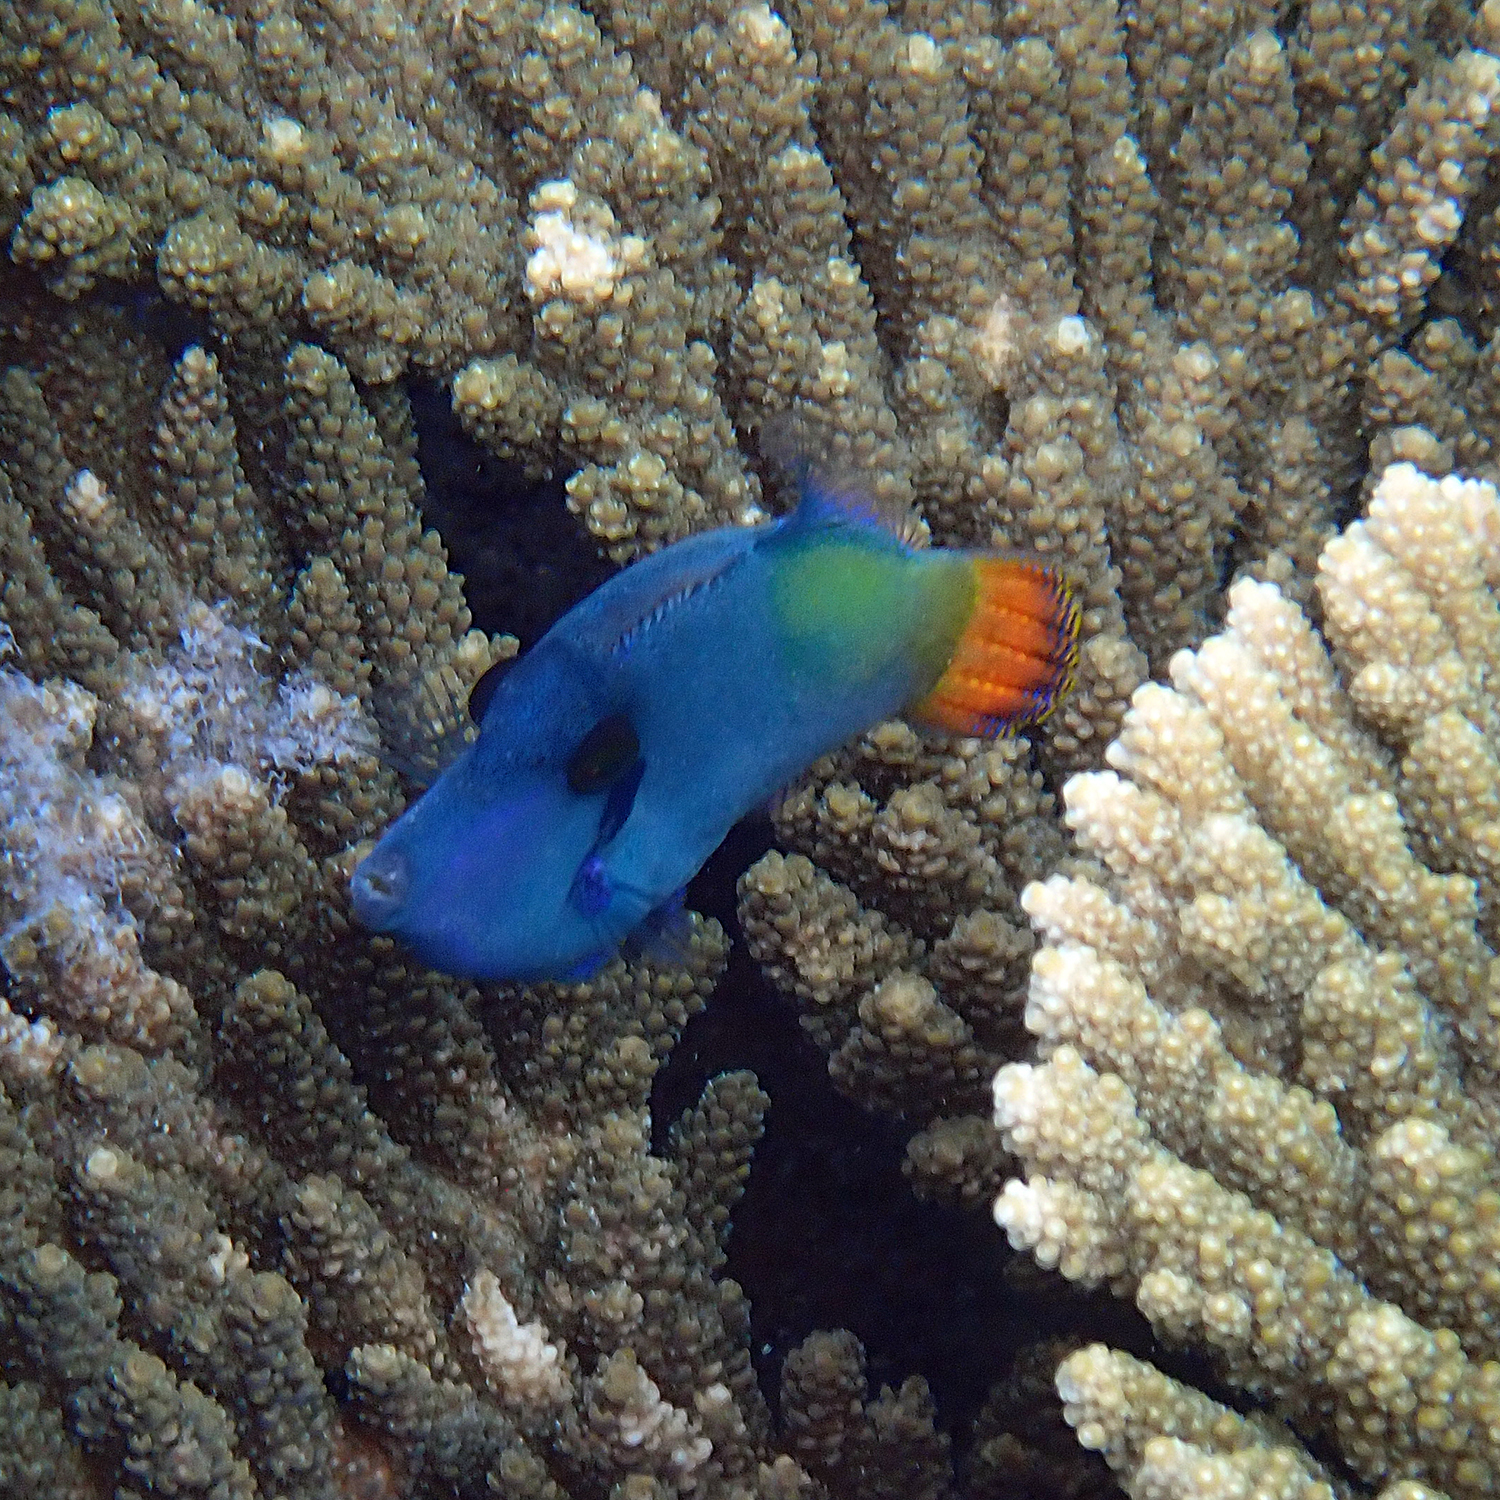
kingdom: Animalia
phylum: Chordata
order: Tetraodontiformes
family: Monacanthidae
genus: Pervagor
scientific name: Pervagor janthinosoma
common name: Blackbar filefish
